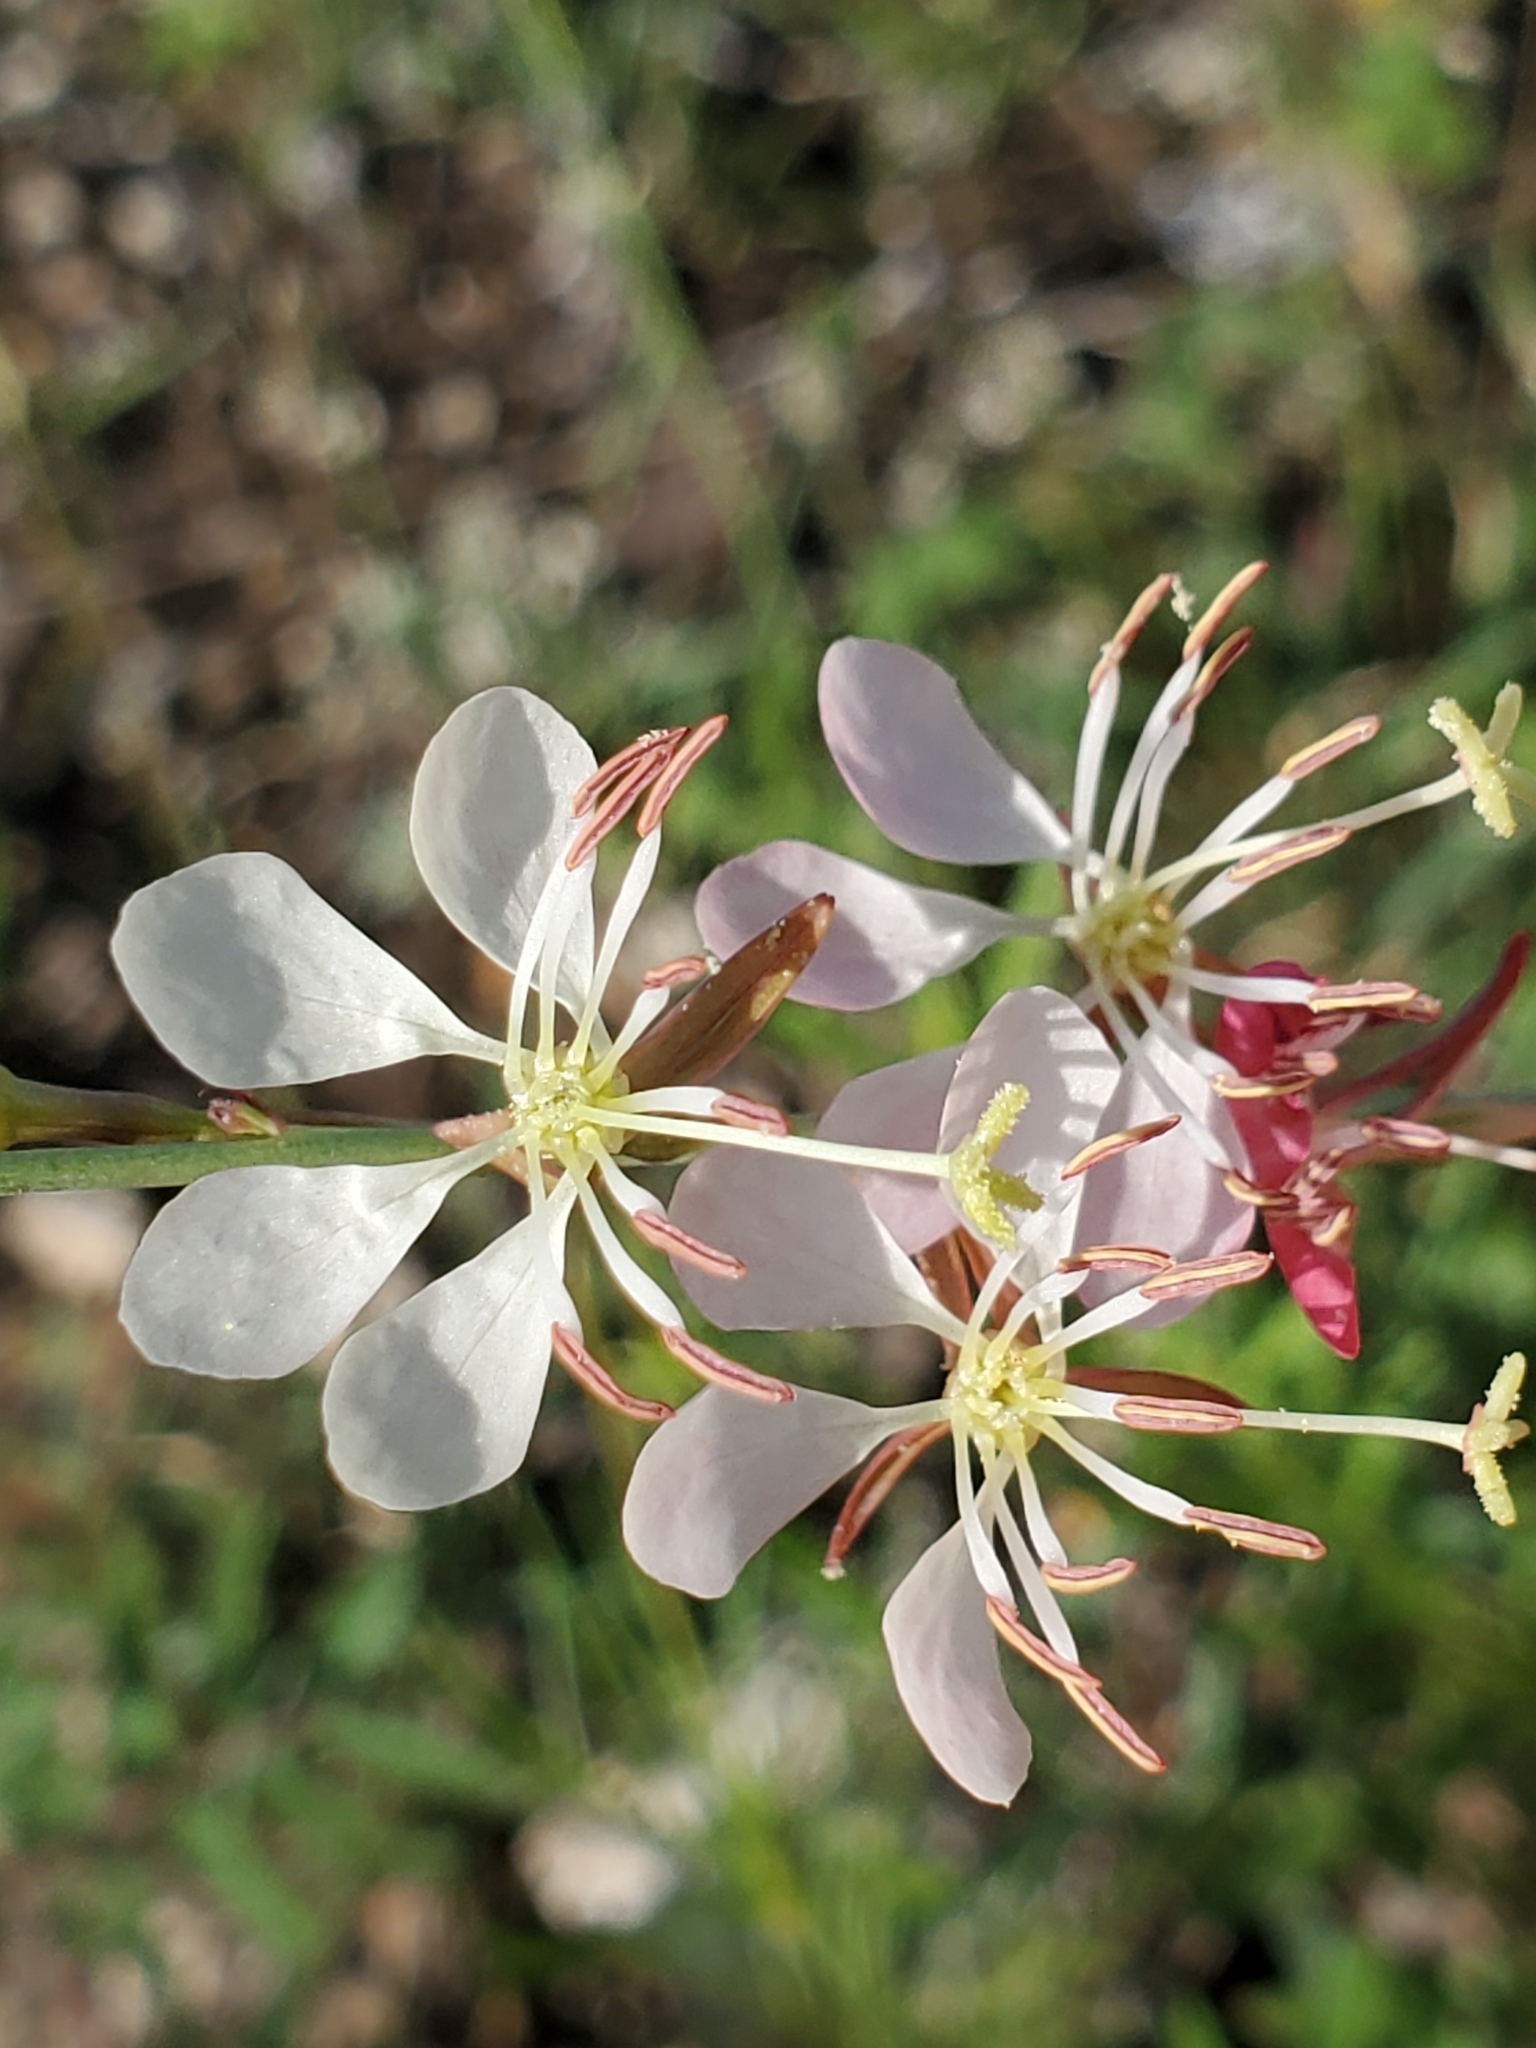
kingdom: Plantae
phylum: Tracheophyta
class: Magnoliopsida
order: Myrtales
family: Onagraceae
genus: Oenothera
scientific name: Oenothera suffrutescens
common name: Scarlet beeblossom
